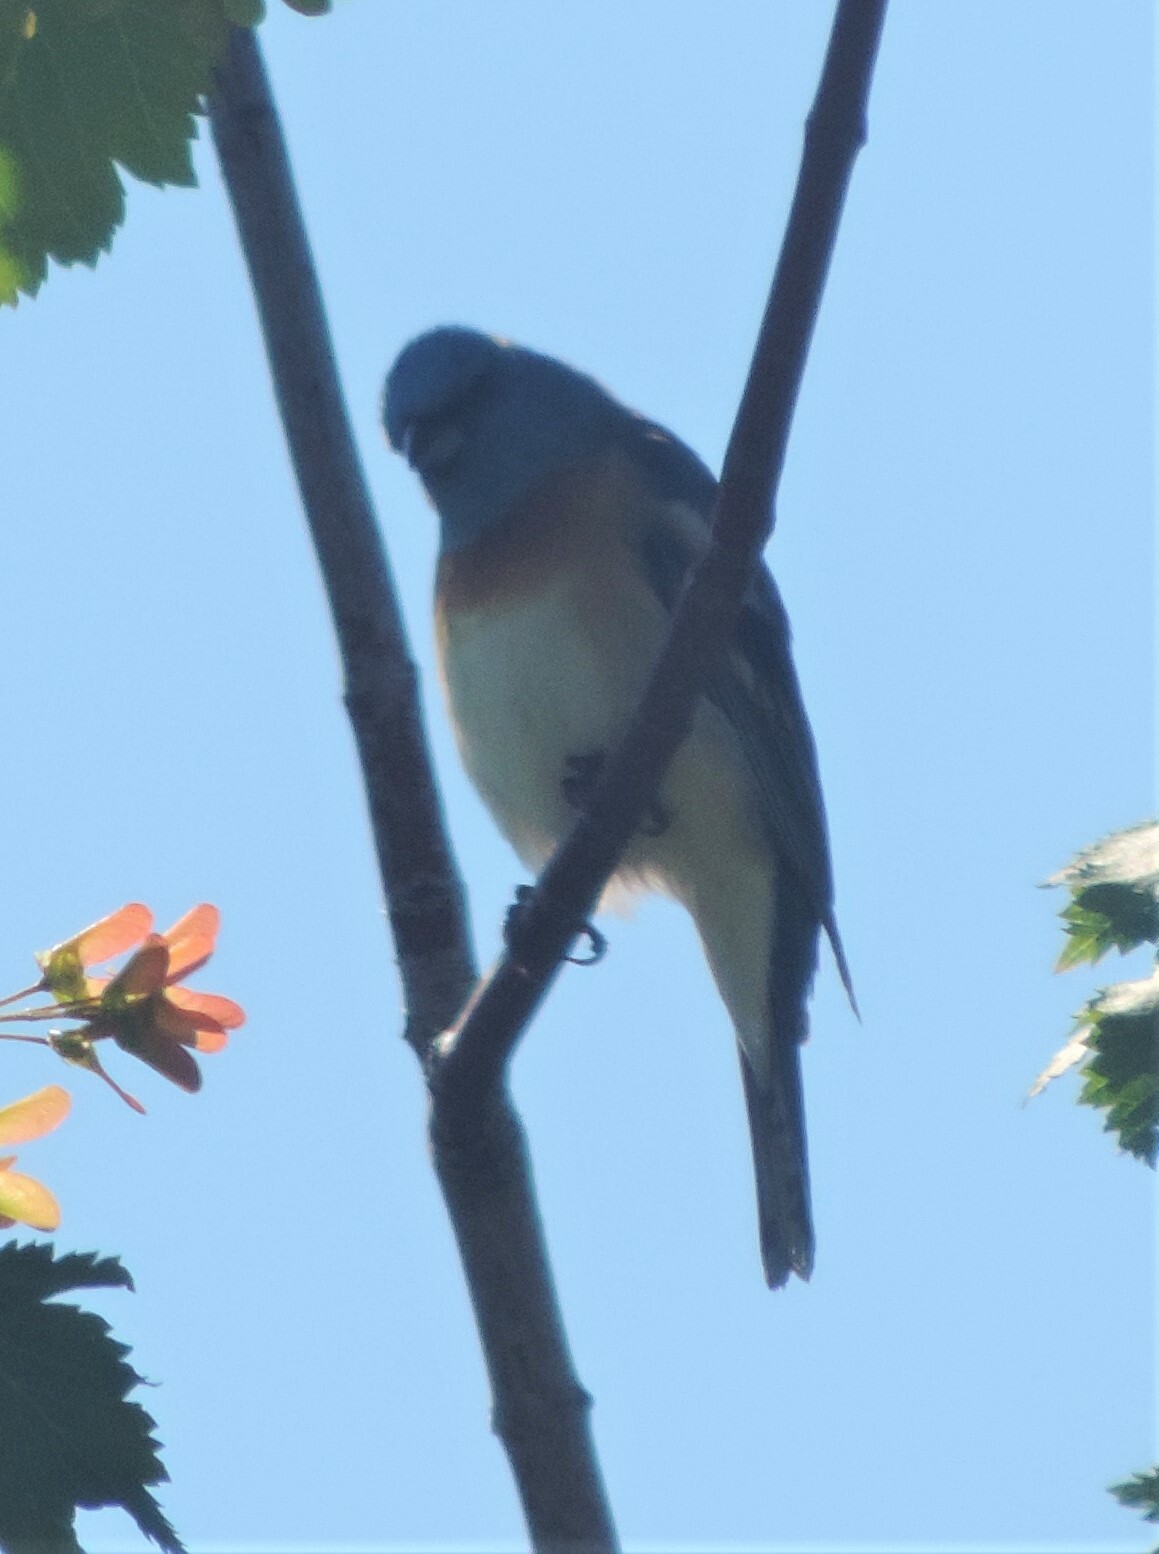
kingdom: Animalia
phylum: Chordata
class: Aves
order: Passeriformes
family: Cardinalidae
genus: Passerina
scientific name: Passerina amoena
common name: Lazuli bunting
